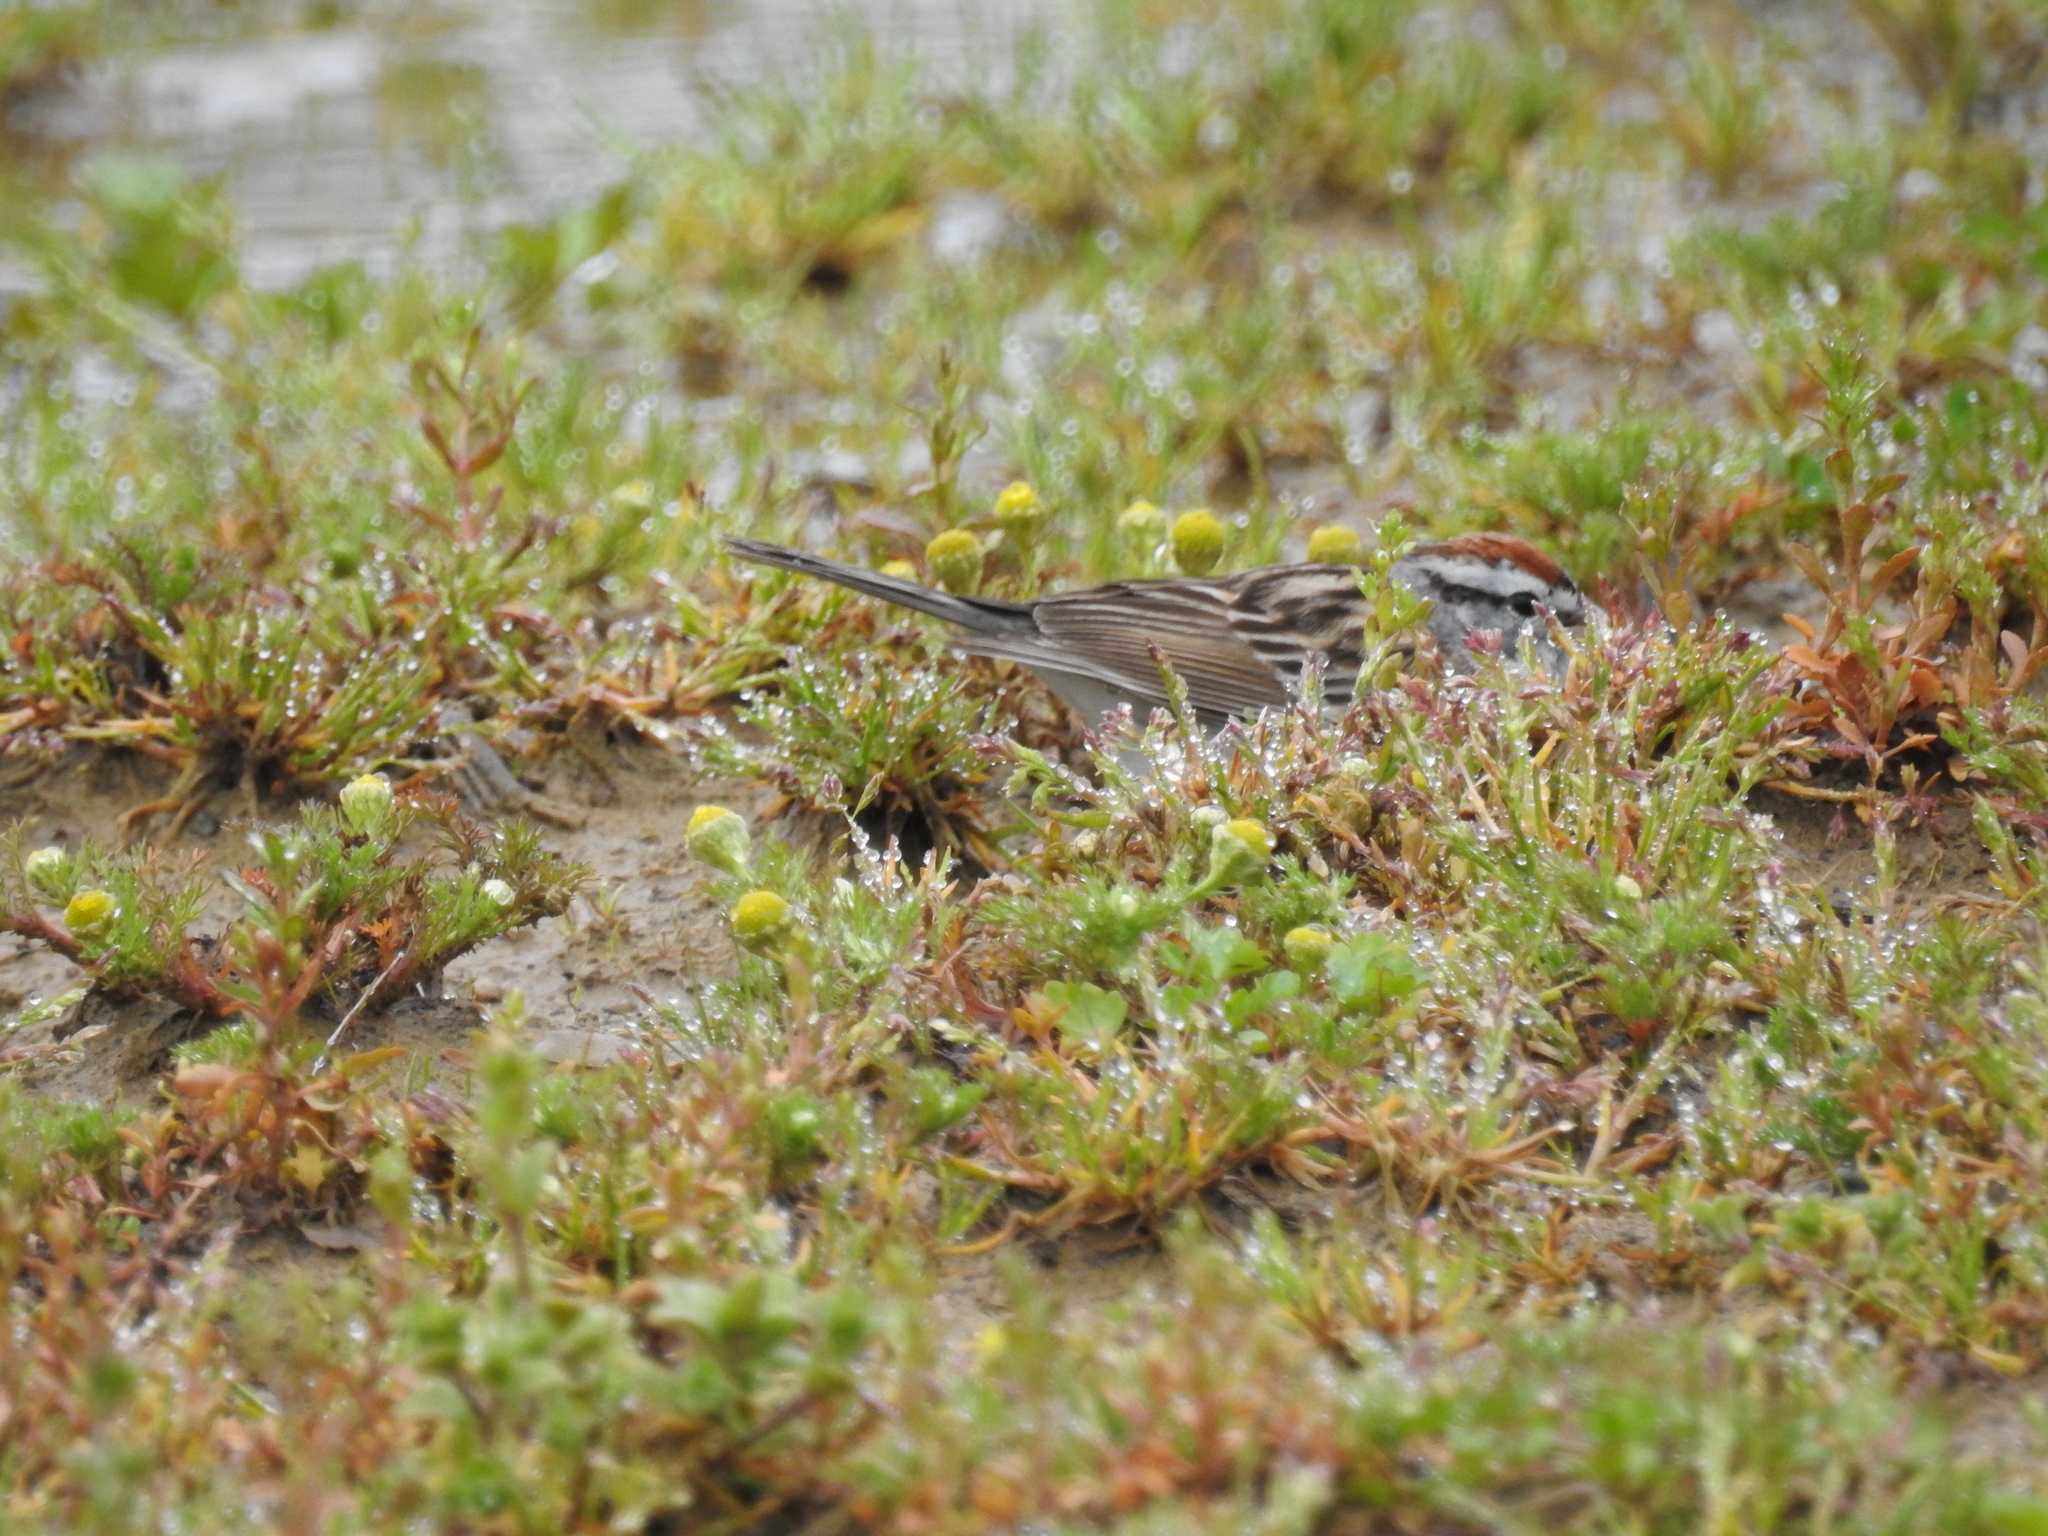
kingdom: Animalia
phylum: Chordata
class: Aves
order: Passeriformes
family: Passerellidae
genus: Spizella
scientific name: Spizella passerina
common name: Chipping sparrow
